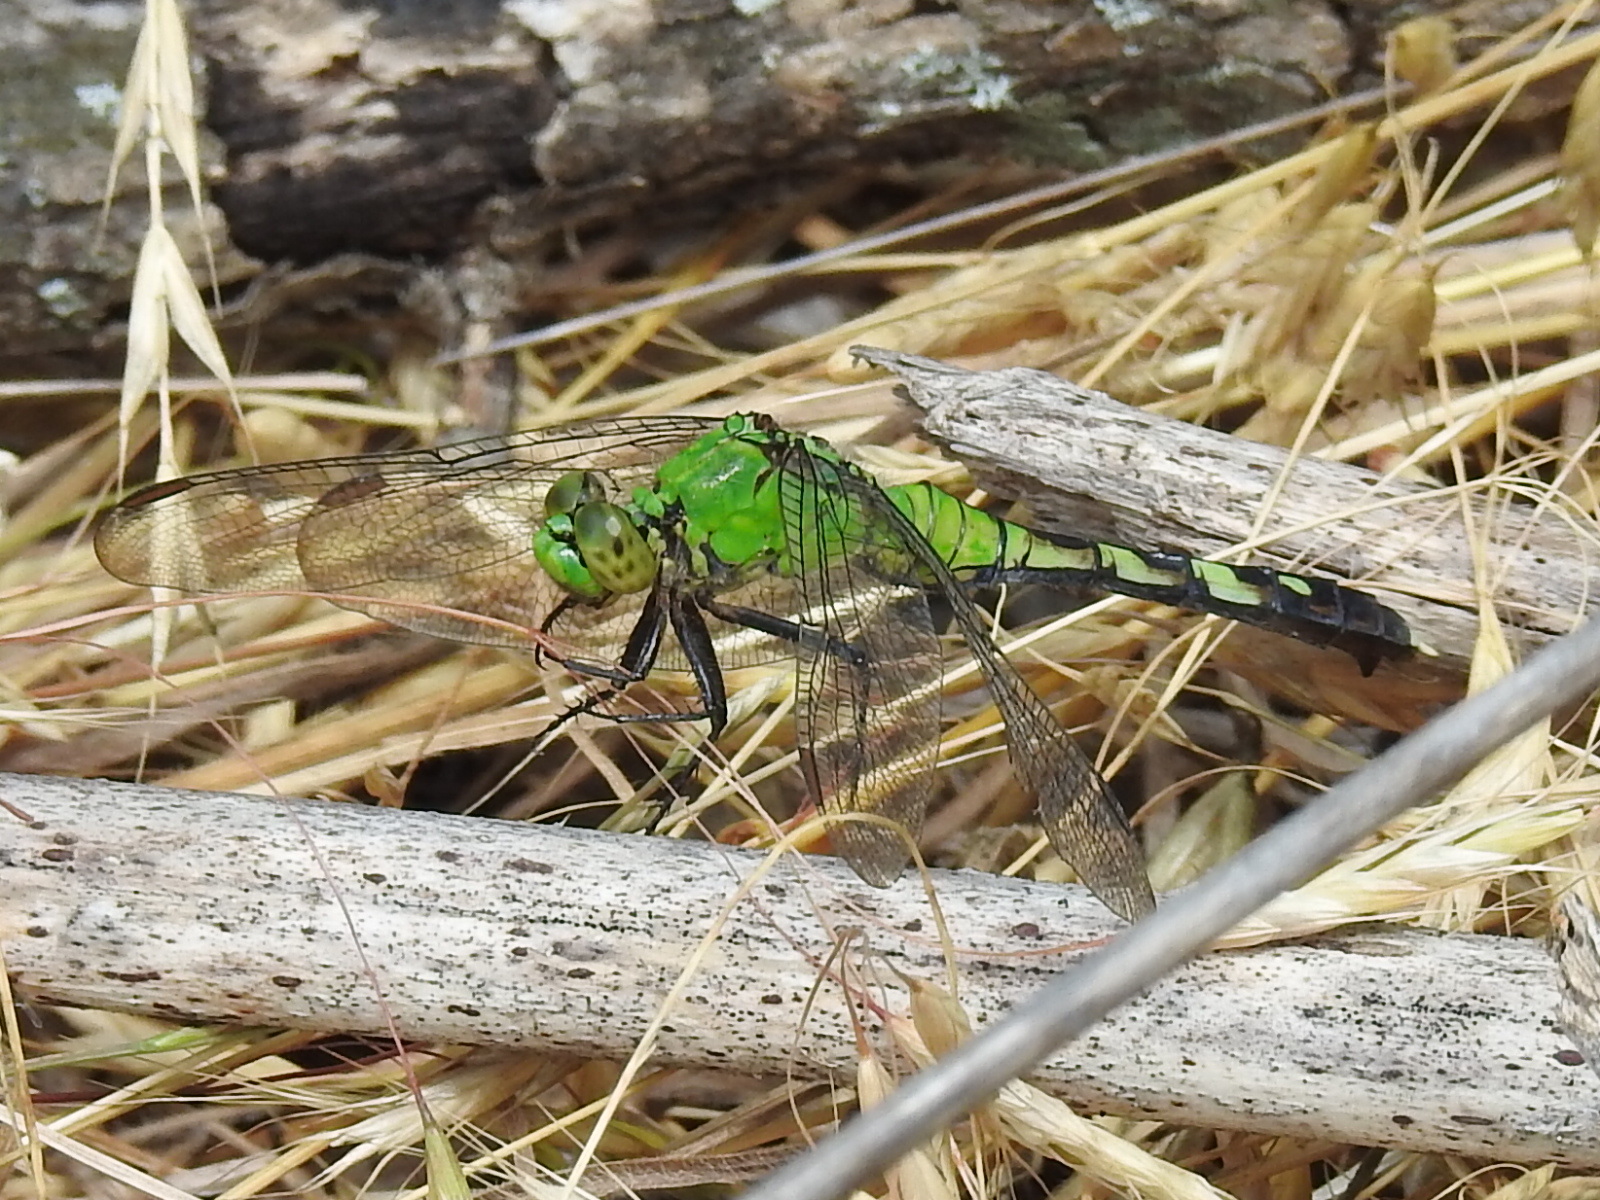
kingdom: Animalia
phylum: Arthropoda
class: Insecta
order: Odonata
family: Libellulidae
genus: Erythemis
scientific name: Erythemis simplicicollis
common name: Eastern pondhawk
